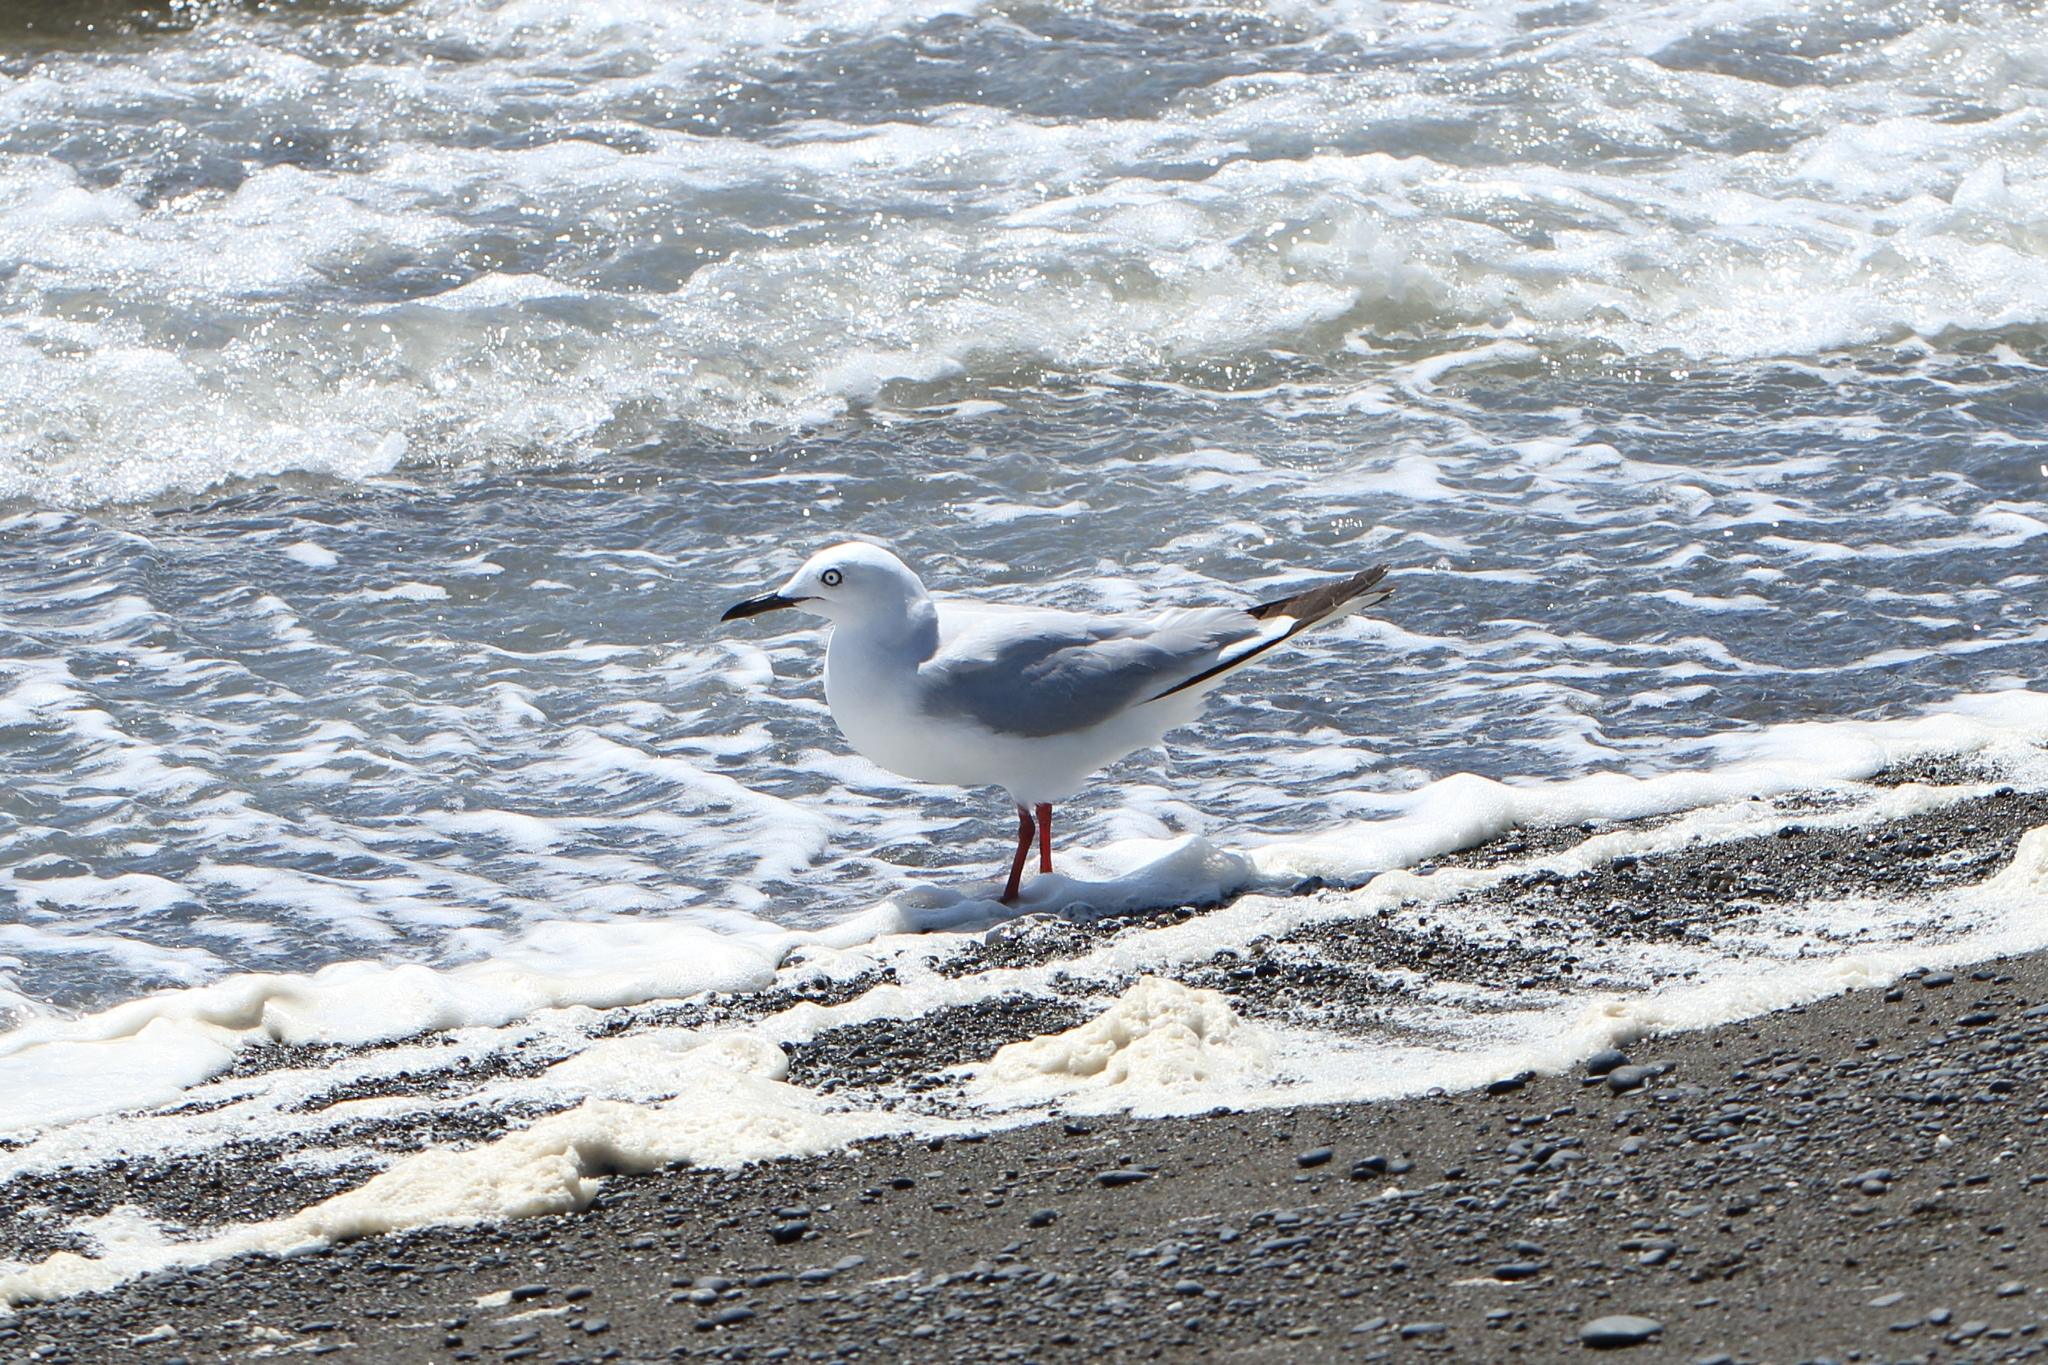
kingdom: Animalia
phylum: Chordata
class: Aves
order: Charadriiformes
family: Laridae
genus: Chroicocephalus
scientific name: Chroicocephalus bulleri
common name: Black-billed gull
